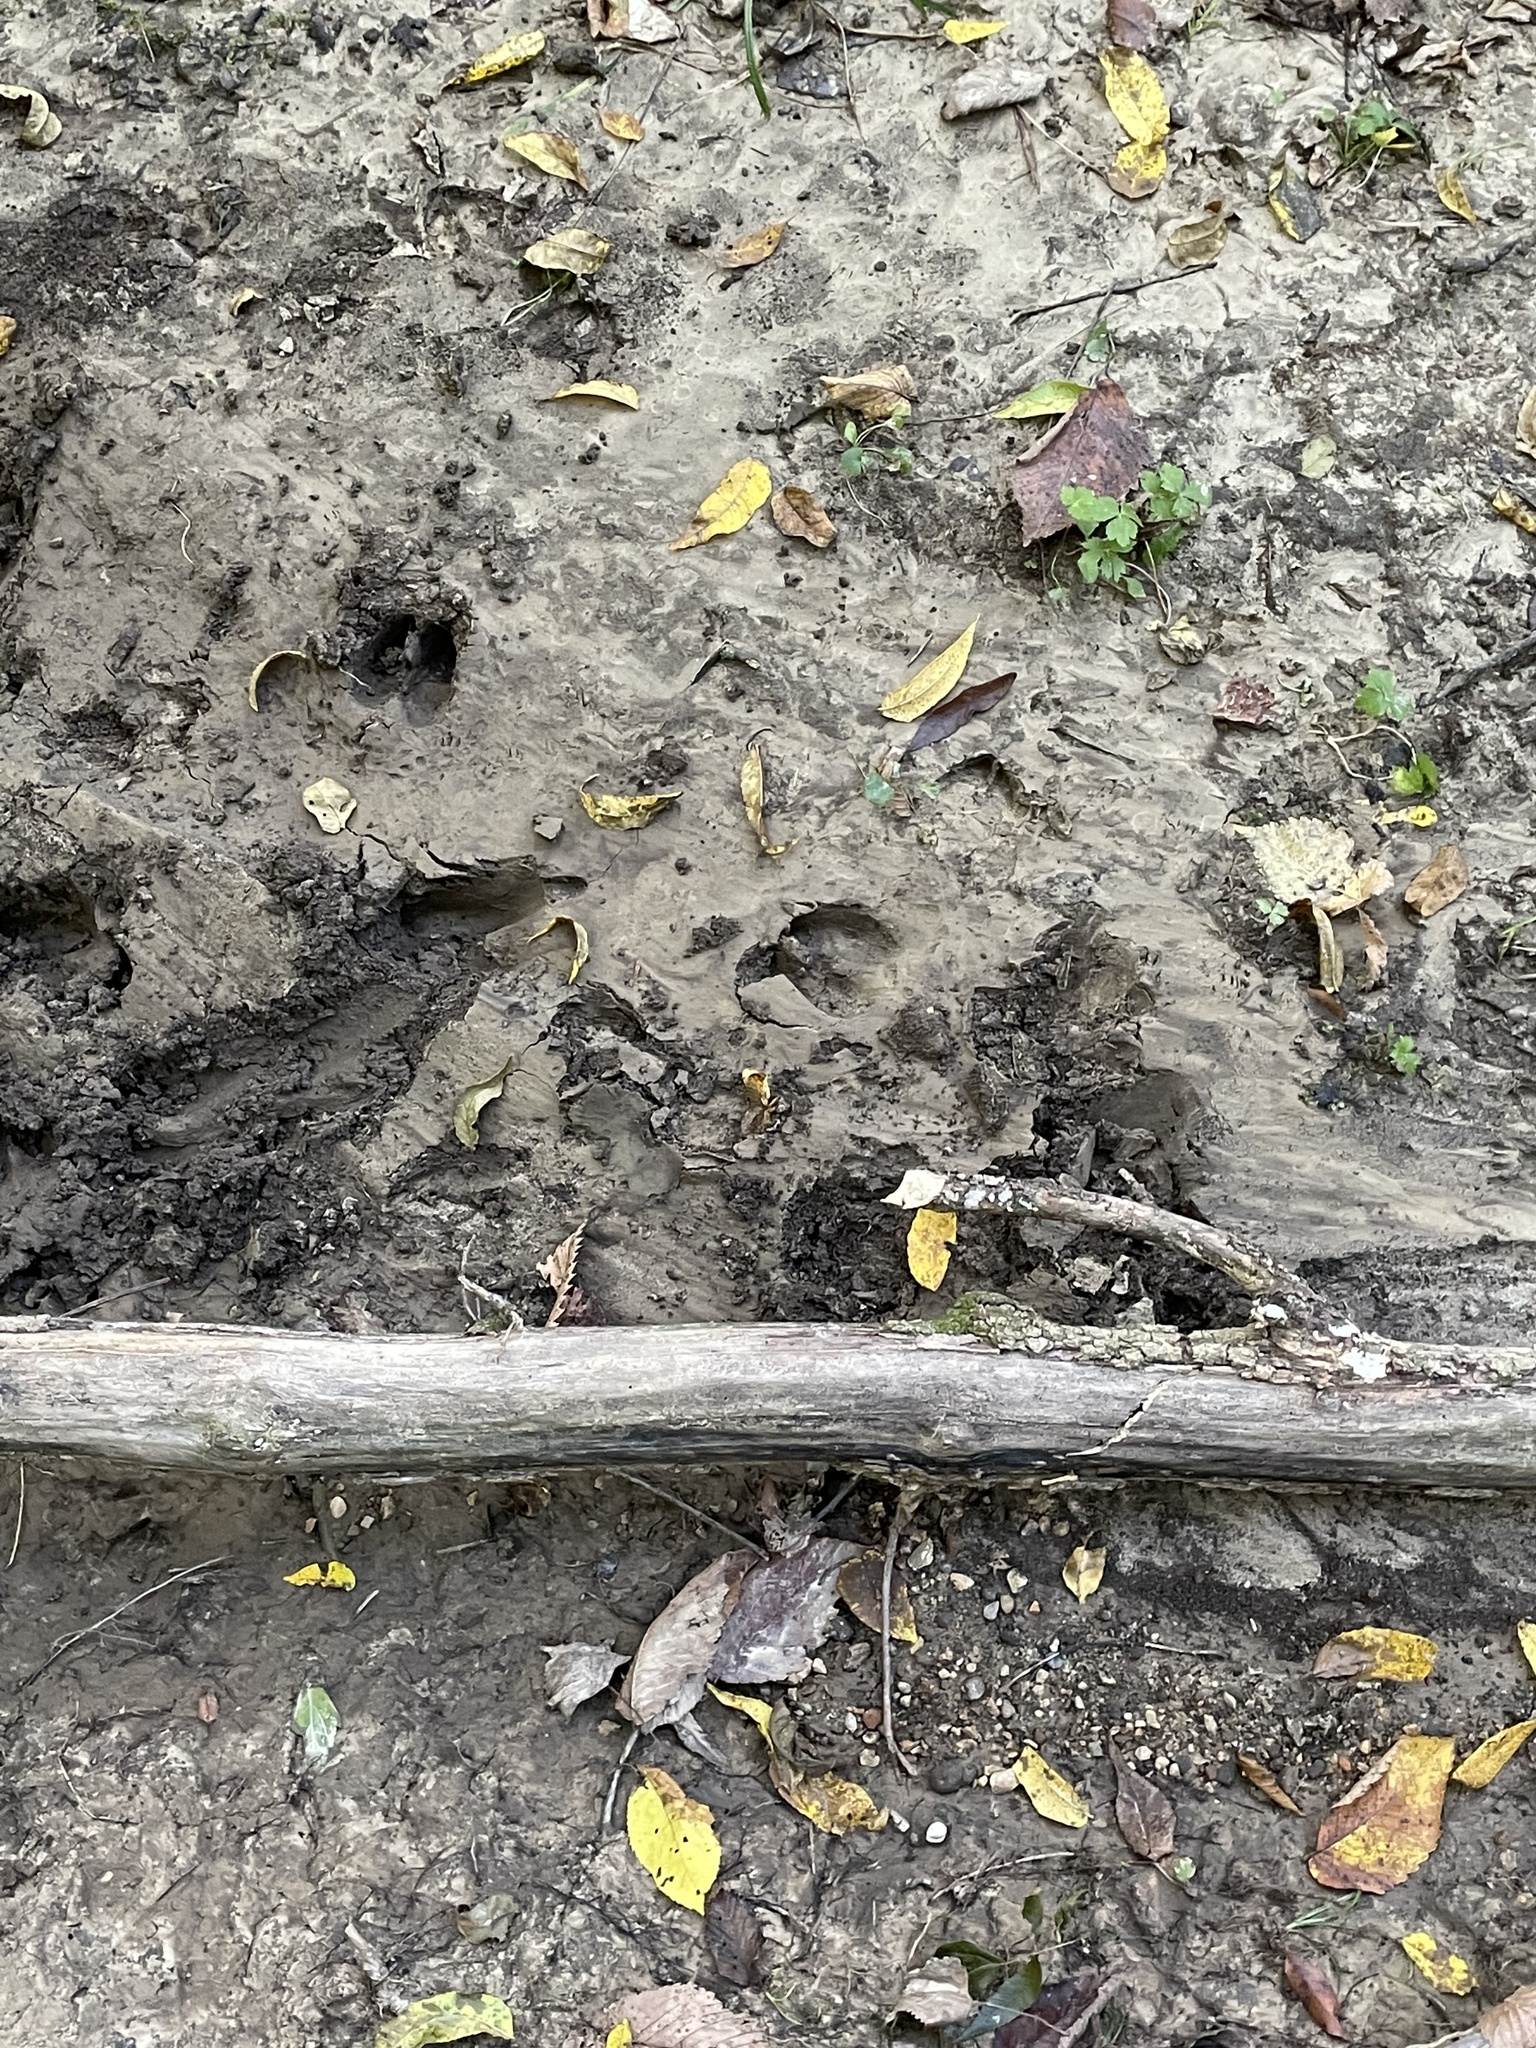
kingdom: Animalia
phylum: Chordata
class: Mammalia
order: Artiodactyla
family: Cervidae
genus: Odocoileus
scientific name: Odocoileus virginianus
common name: White-tailed deer
